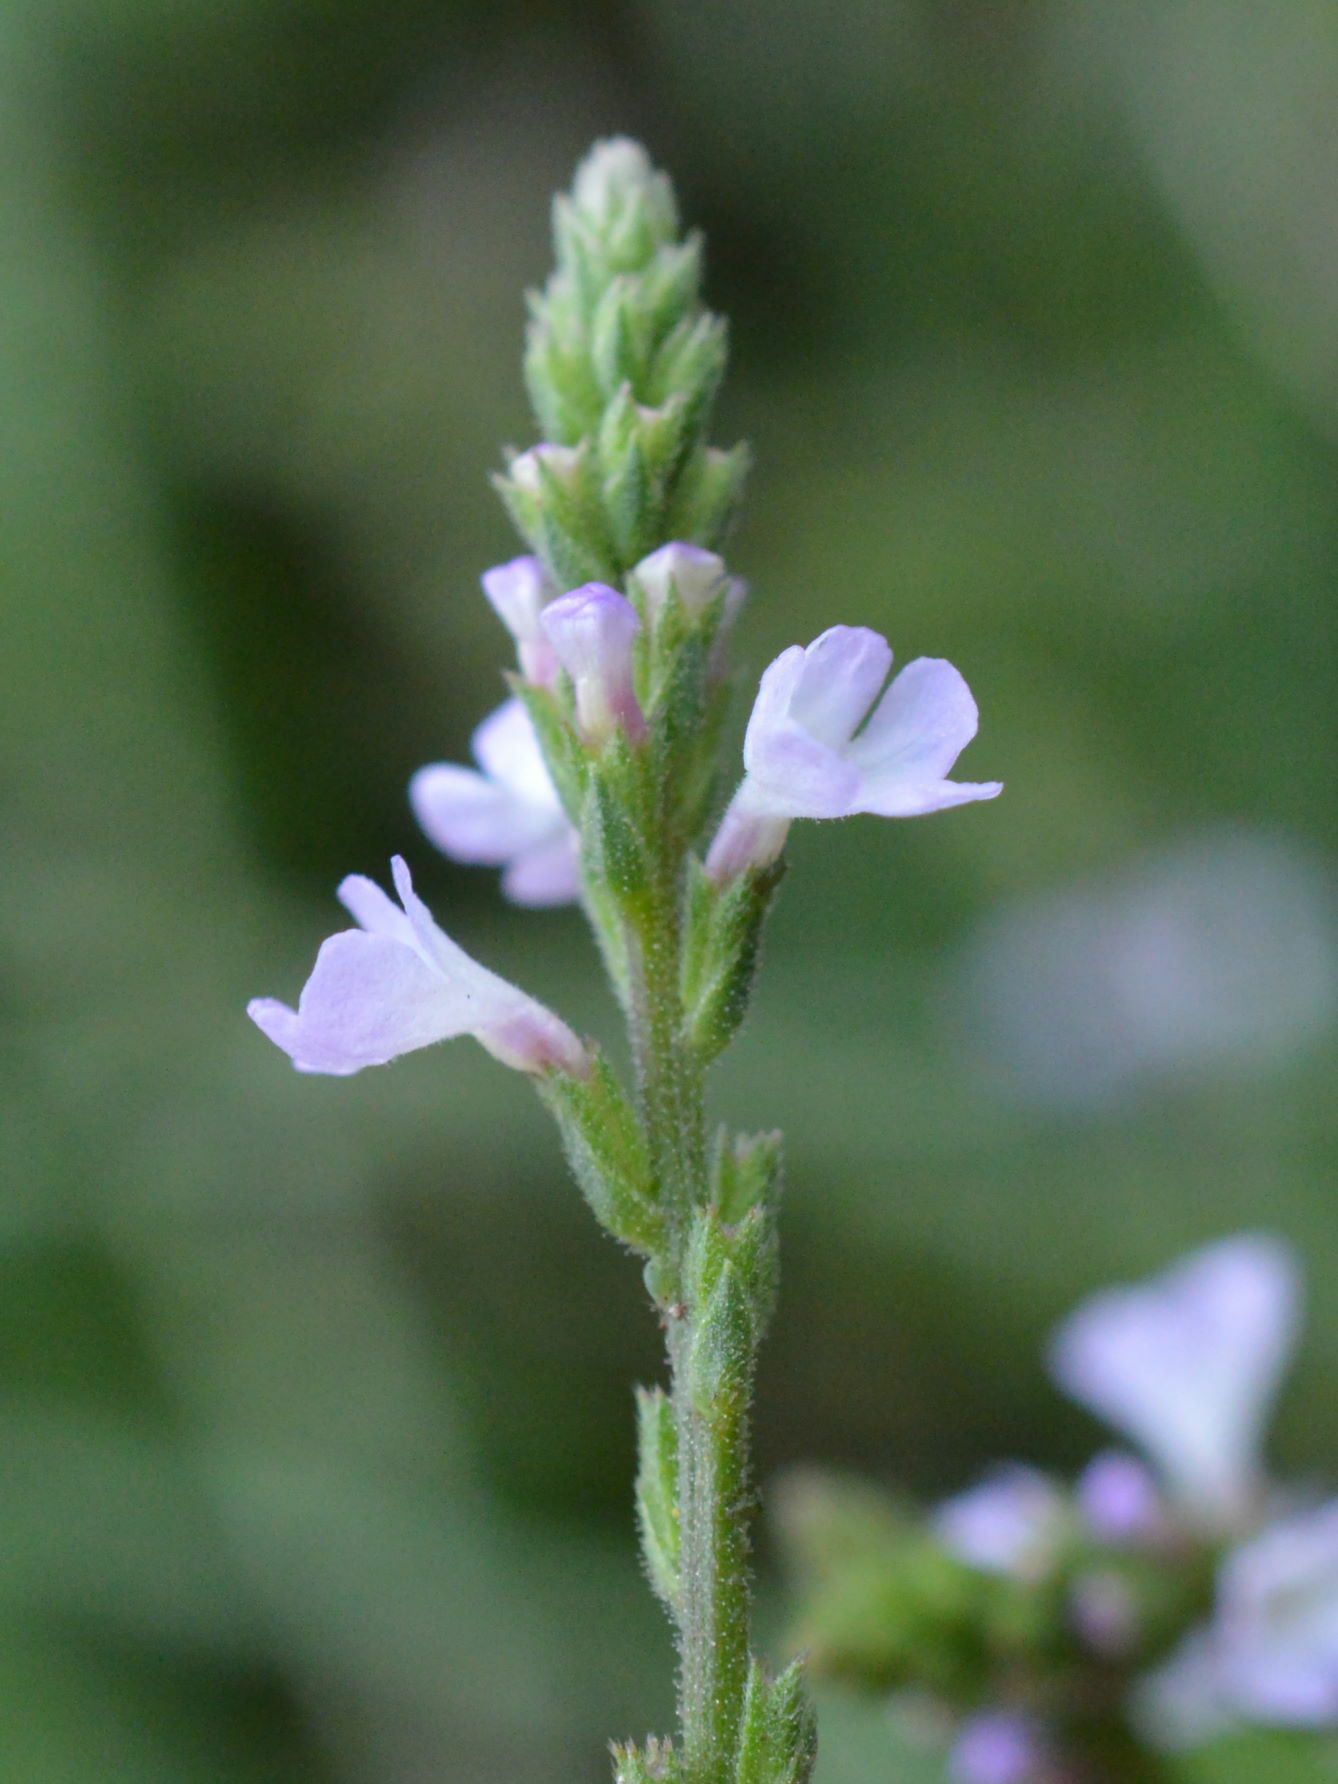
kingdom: Plantae
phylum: Tracheophyta
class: Magnoliopsida
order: Lamiales
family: Verbenaceae
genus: Verbena
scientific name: Verbena officinalis
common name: Vervain
